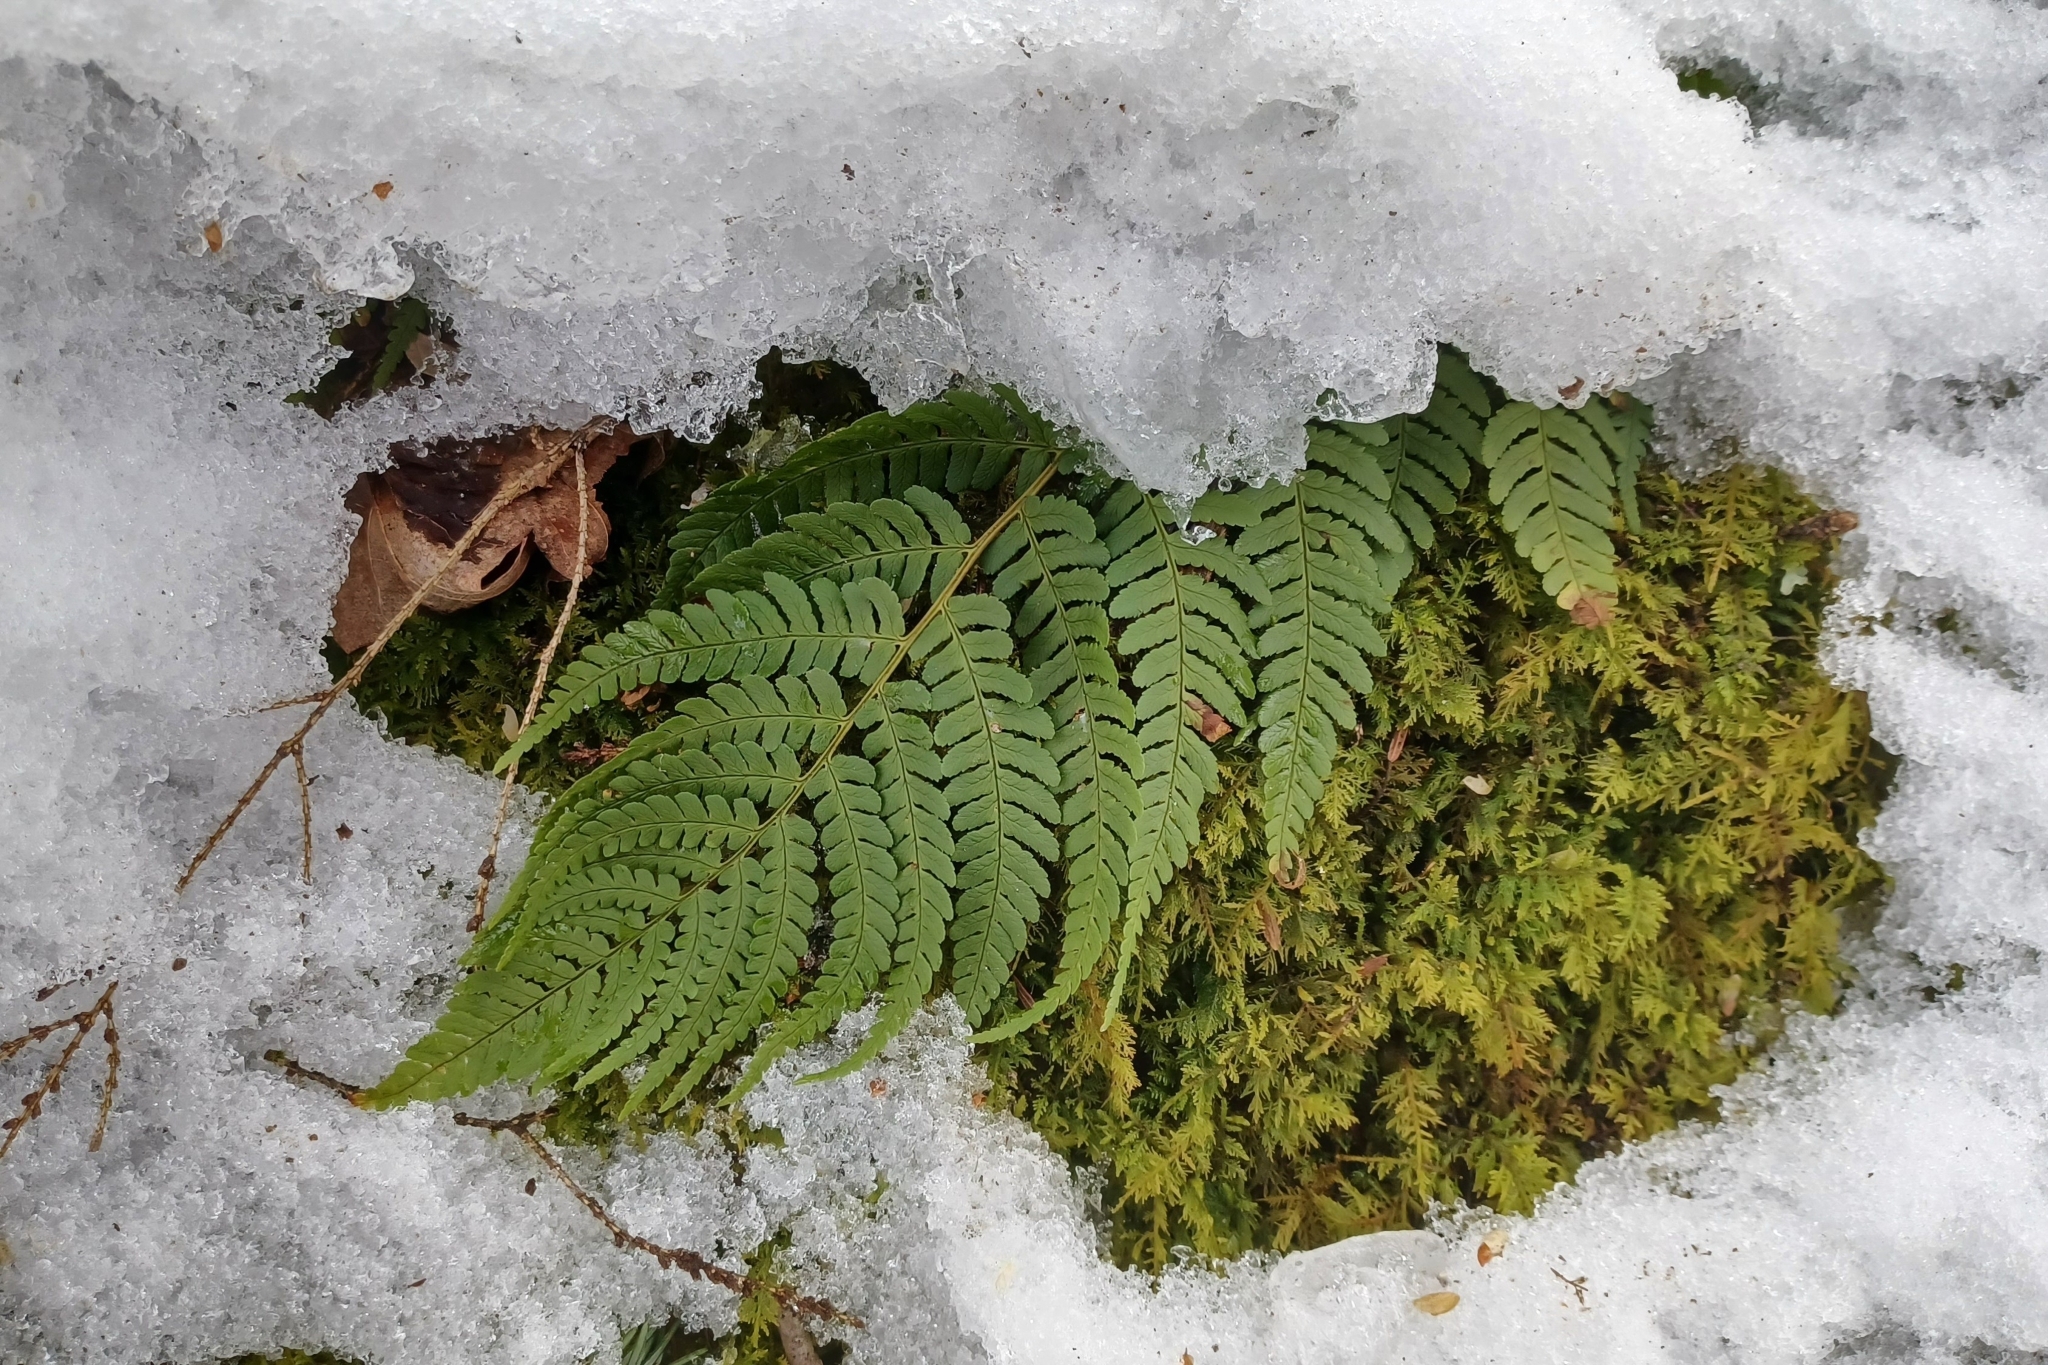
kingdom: Plantae
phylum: Tracheophyta
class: Polypodiopsida
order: Polypodiales
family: Dryopteridaceae
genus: Dryopteris
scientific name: Dryopteris marginalis
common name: Marginal wood fern
